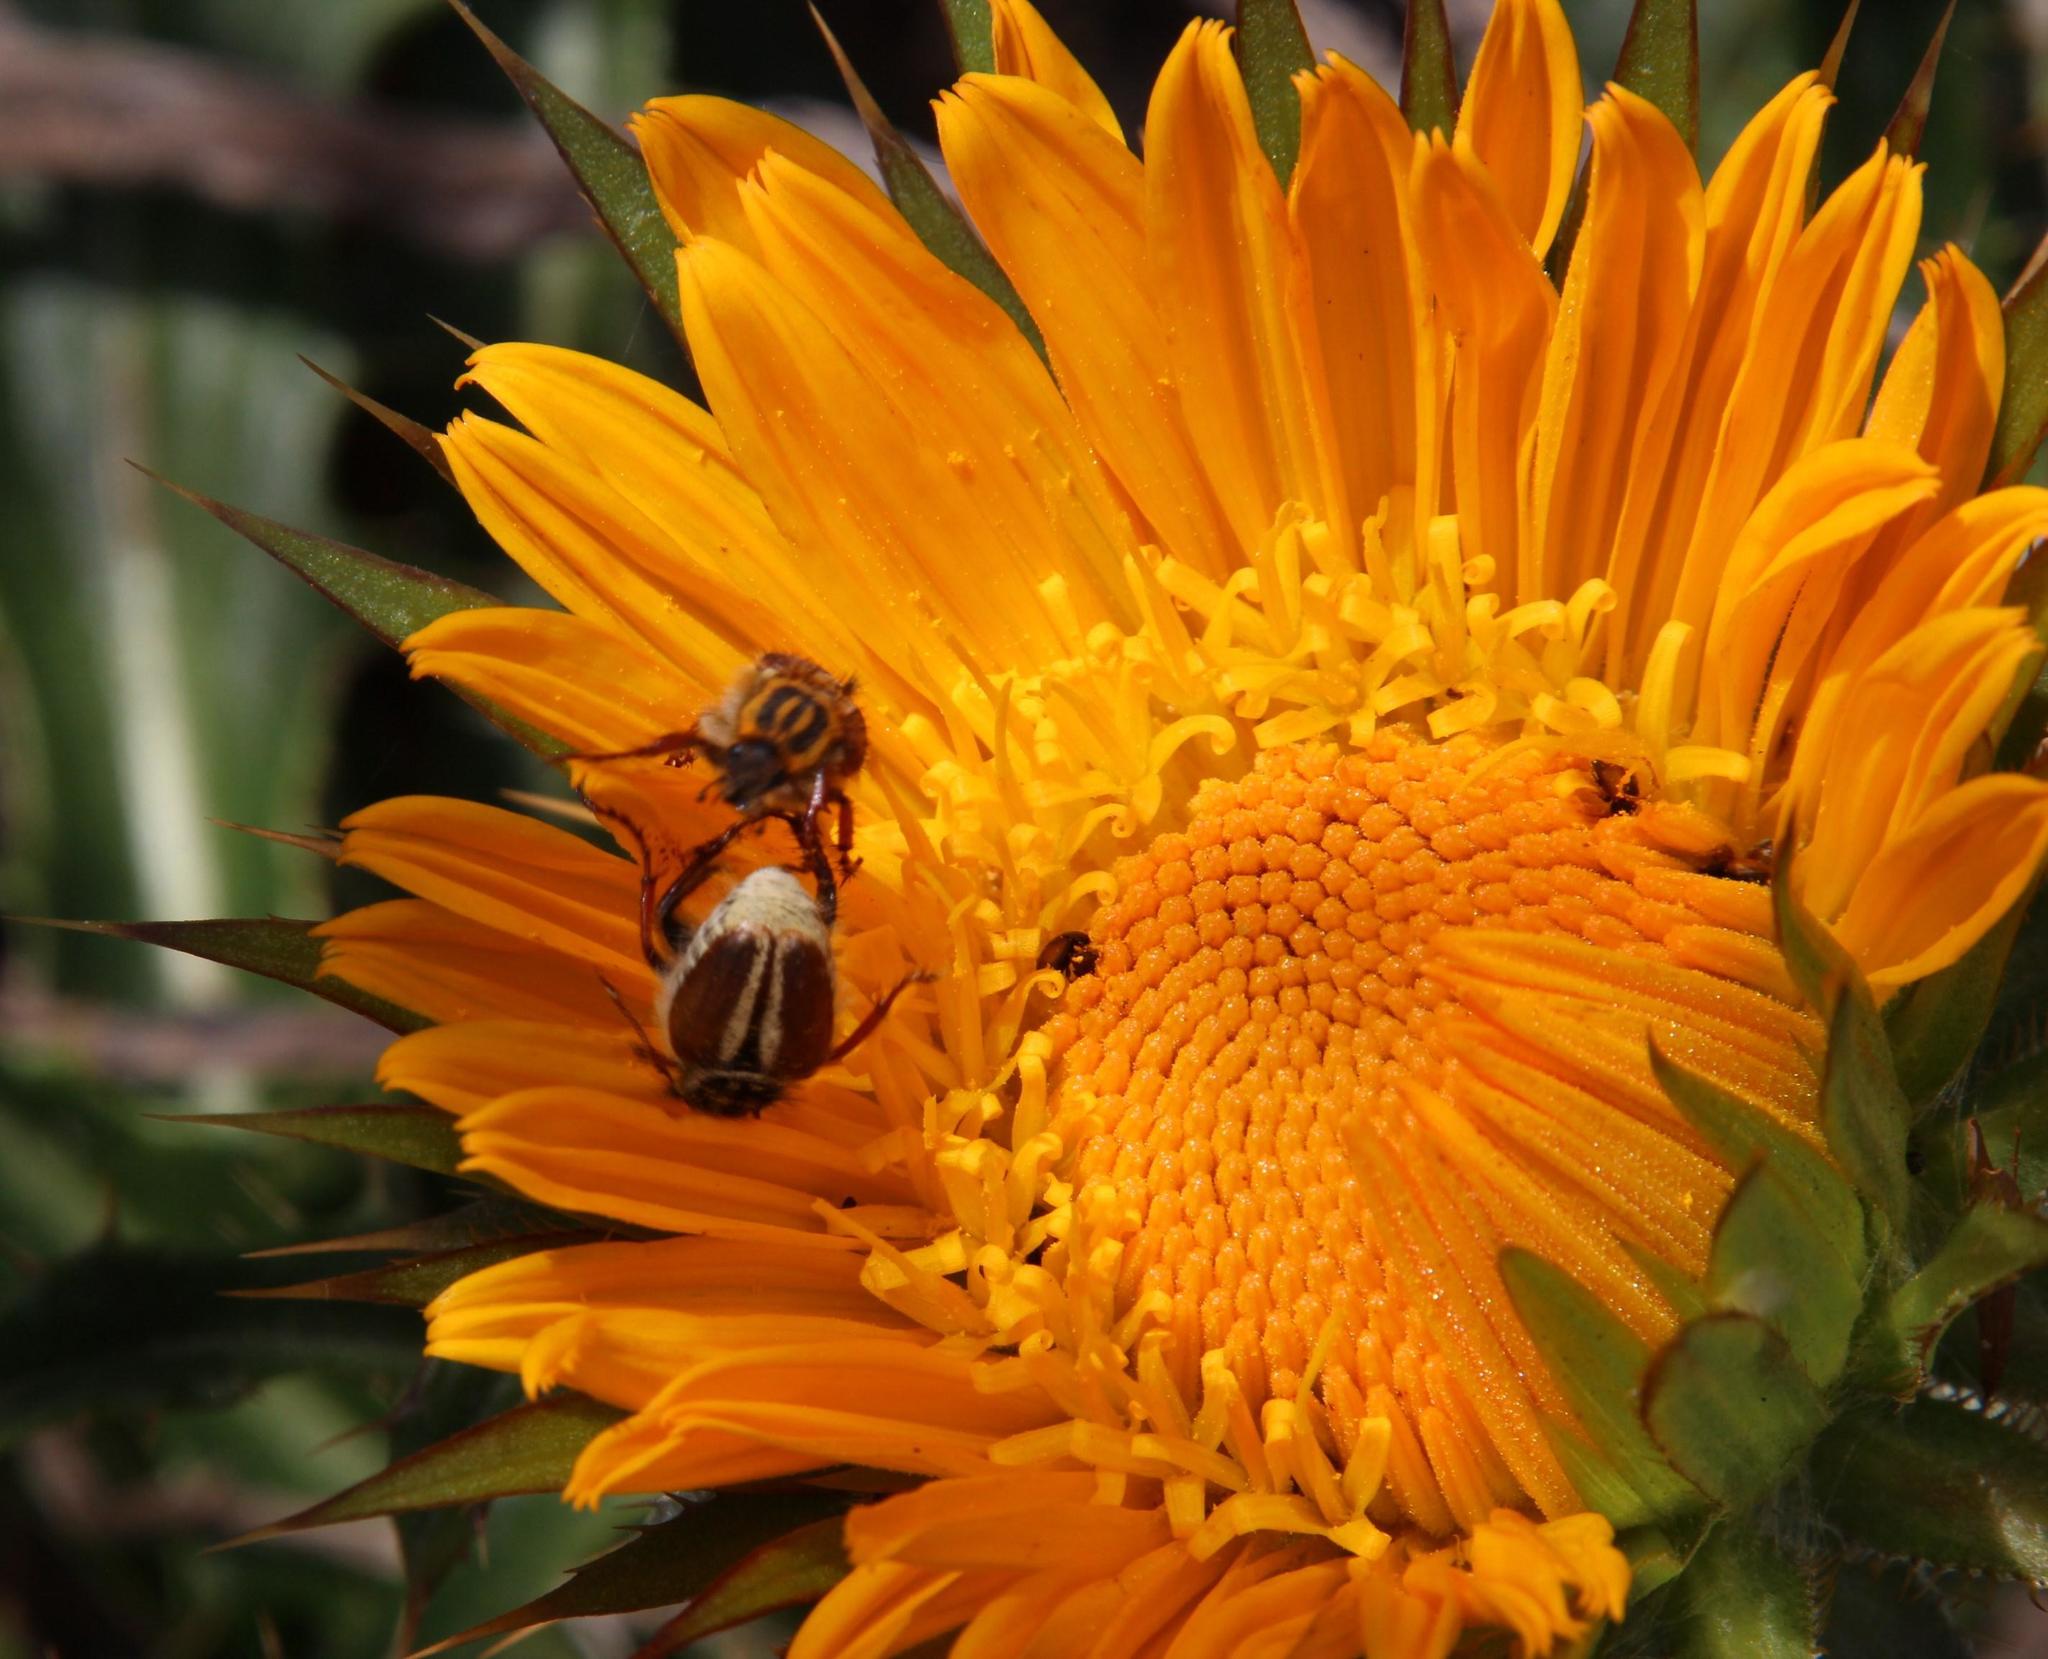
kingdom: Plantae
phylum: Tracheophyta
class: Magnoliopsida
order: Asterales
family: Asteraceae
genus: Berkheya
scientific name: Berkheya armata
